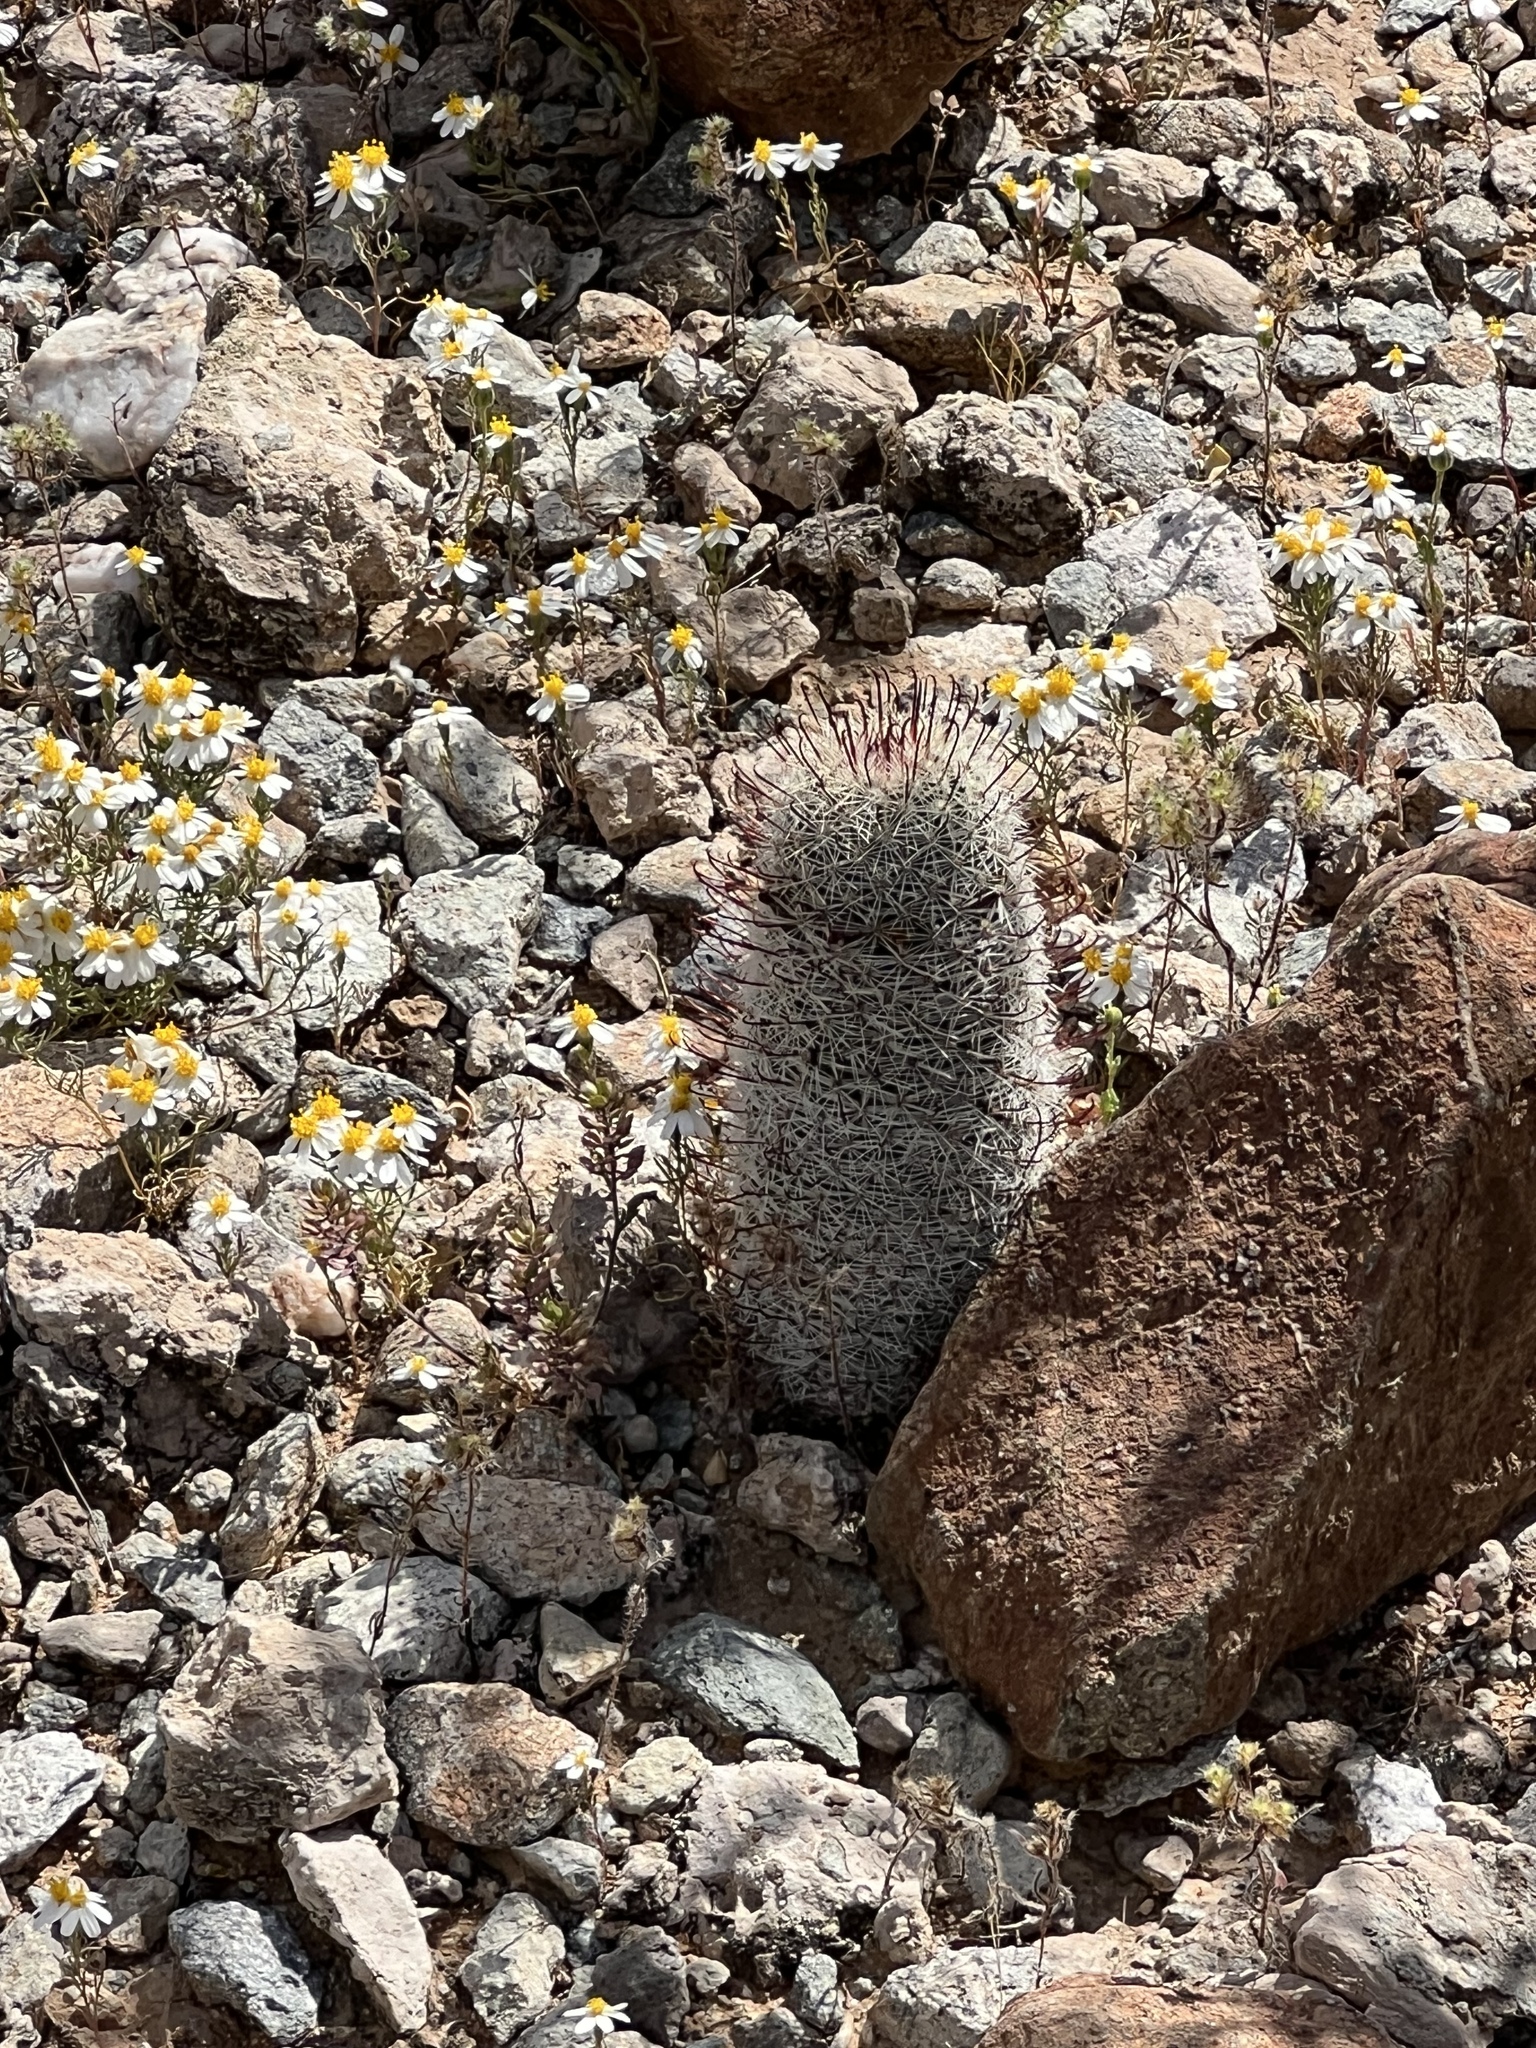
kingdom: Plantae
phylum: Tracheophyta
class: Magnoliopsida
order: Caryophyllales
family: Cactaceae
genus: Cochemiea
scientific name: Cochemiea grahamii
